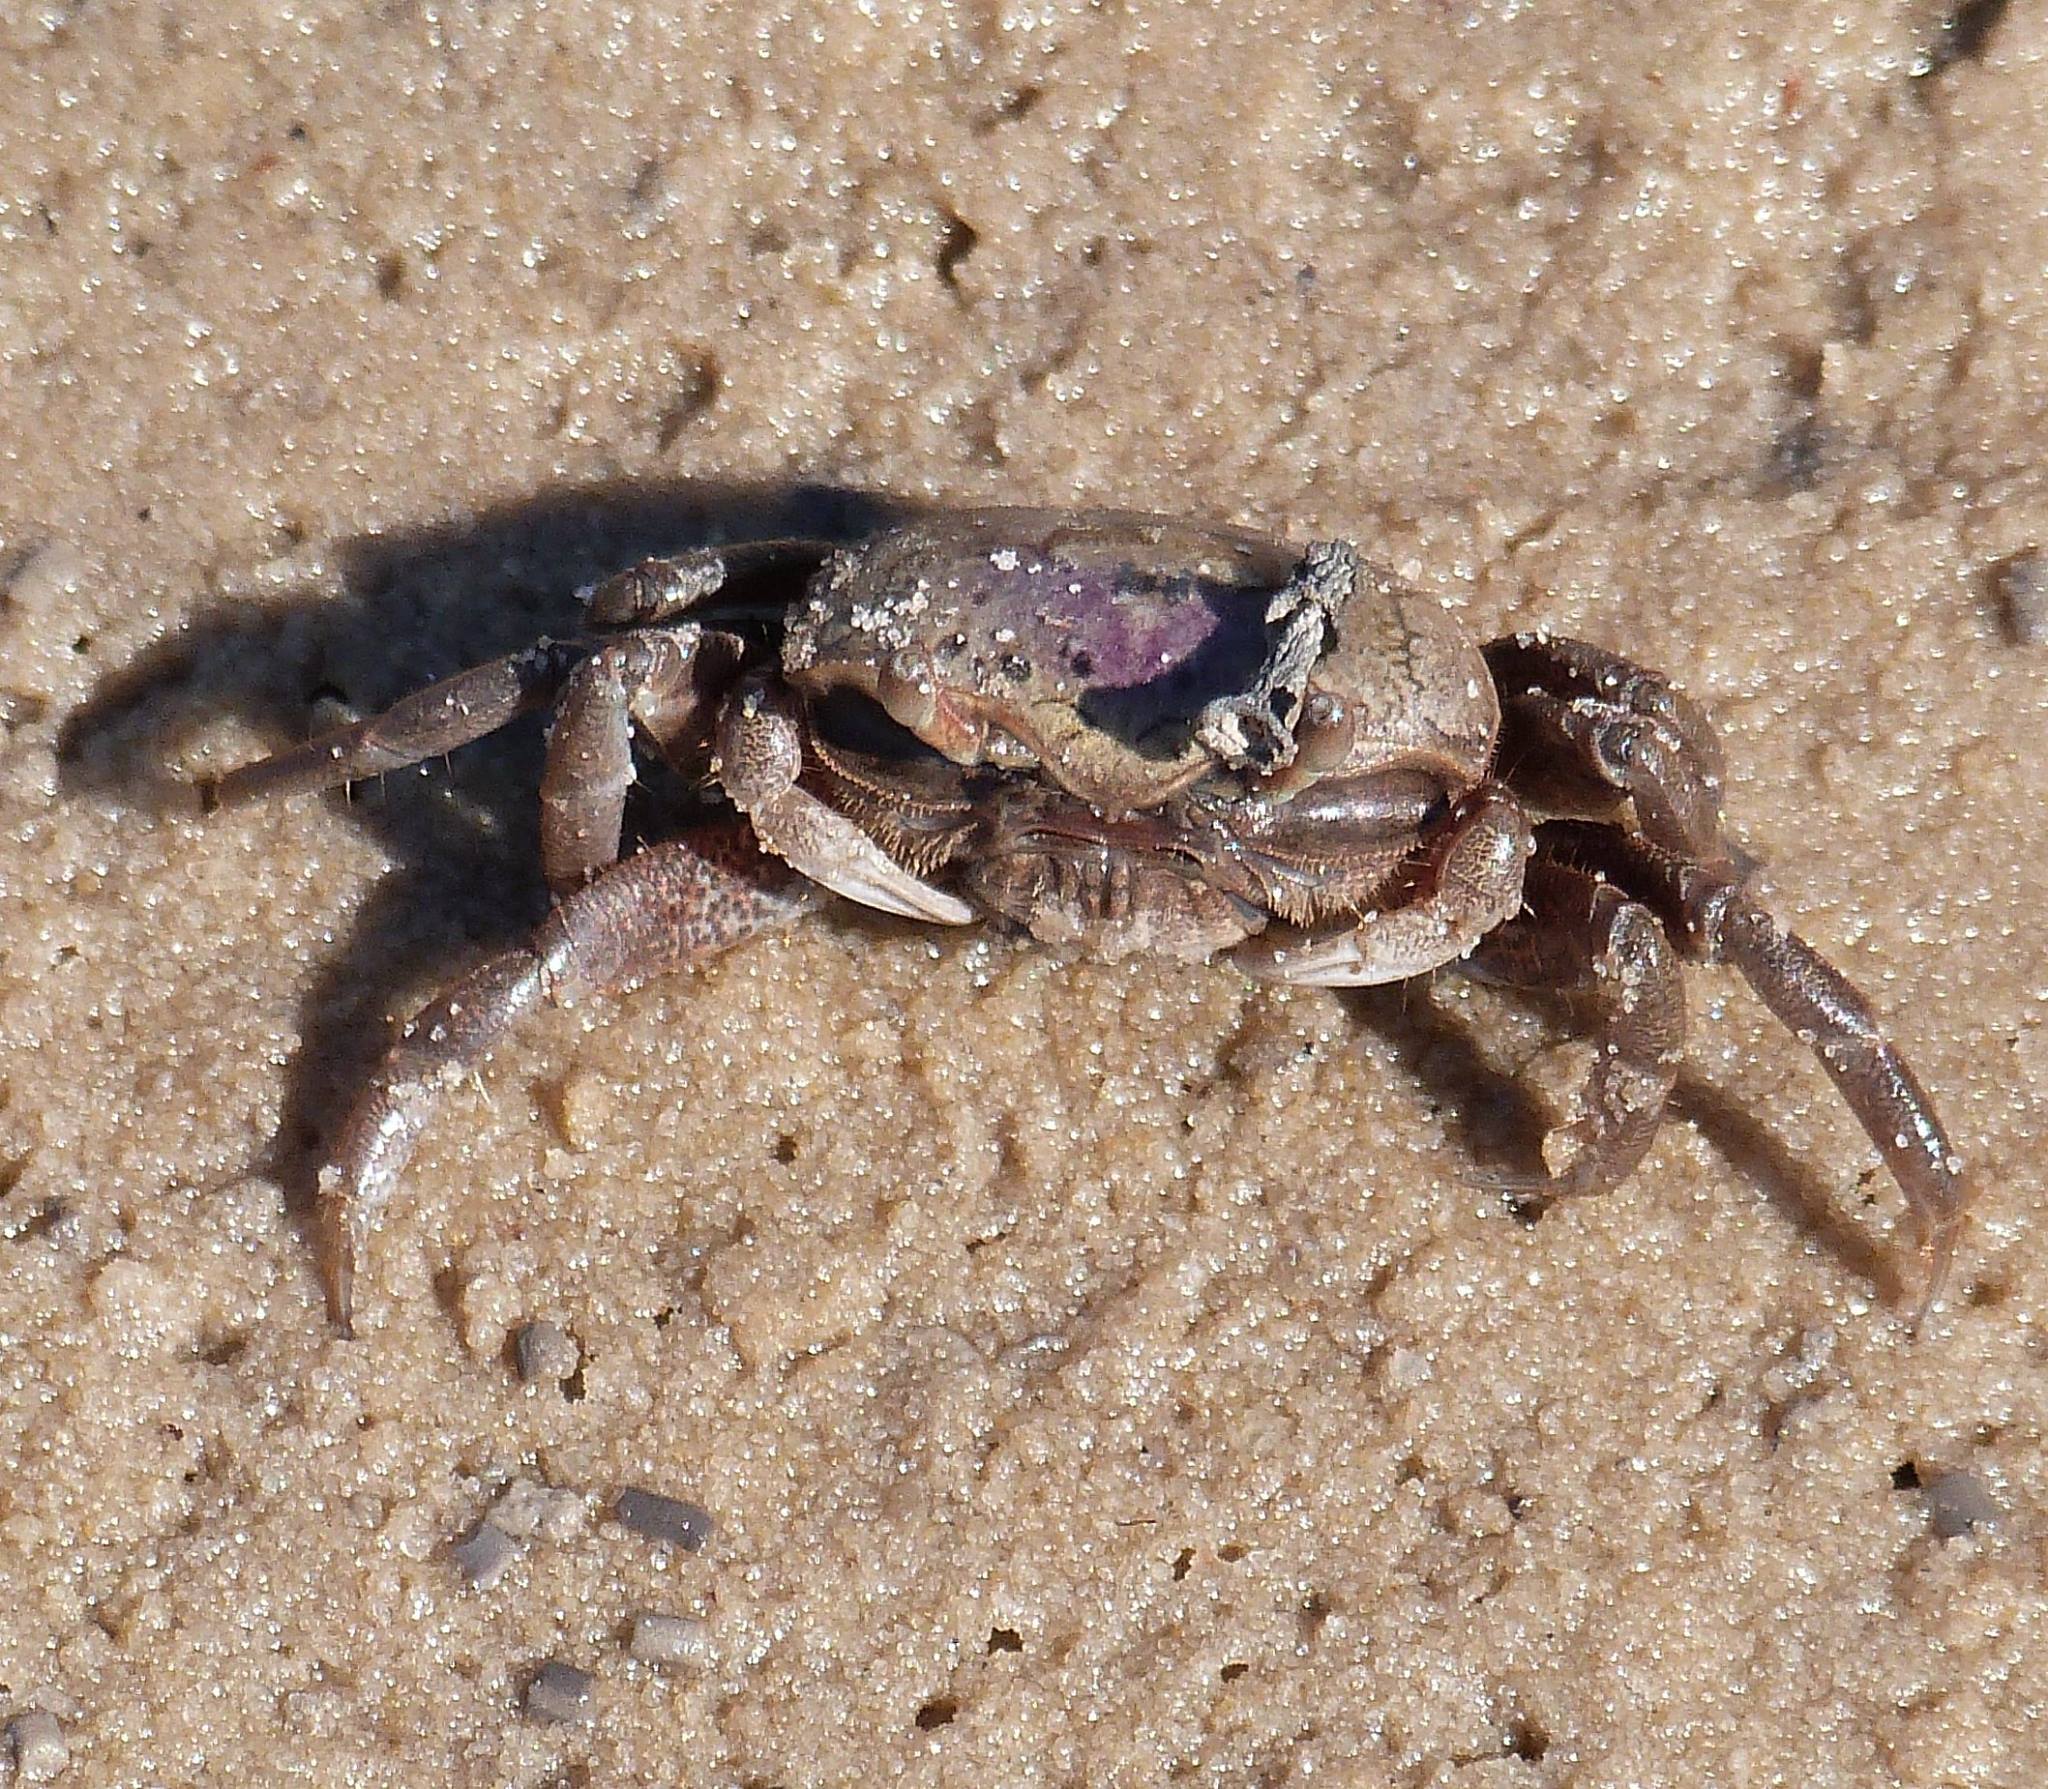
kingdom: Animalia
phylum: Arthropoda
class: Malacostraca
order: Decapoda
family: Ocypodidae
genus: Leptuca
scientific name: Leptuca pugilator
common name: Atlantic sand fiddler crab
